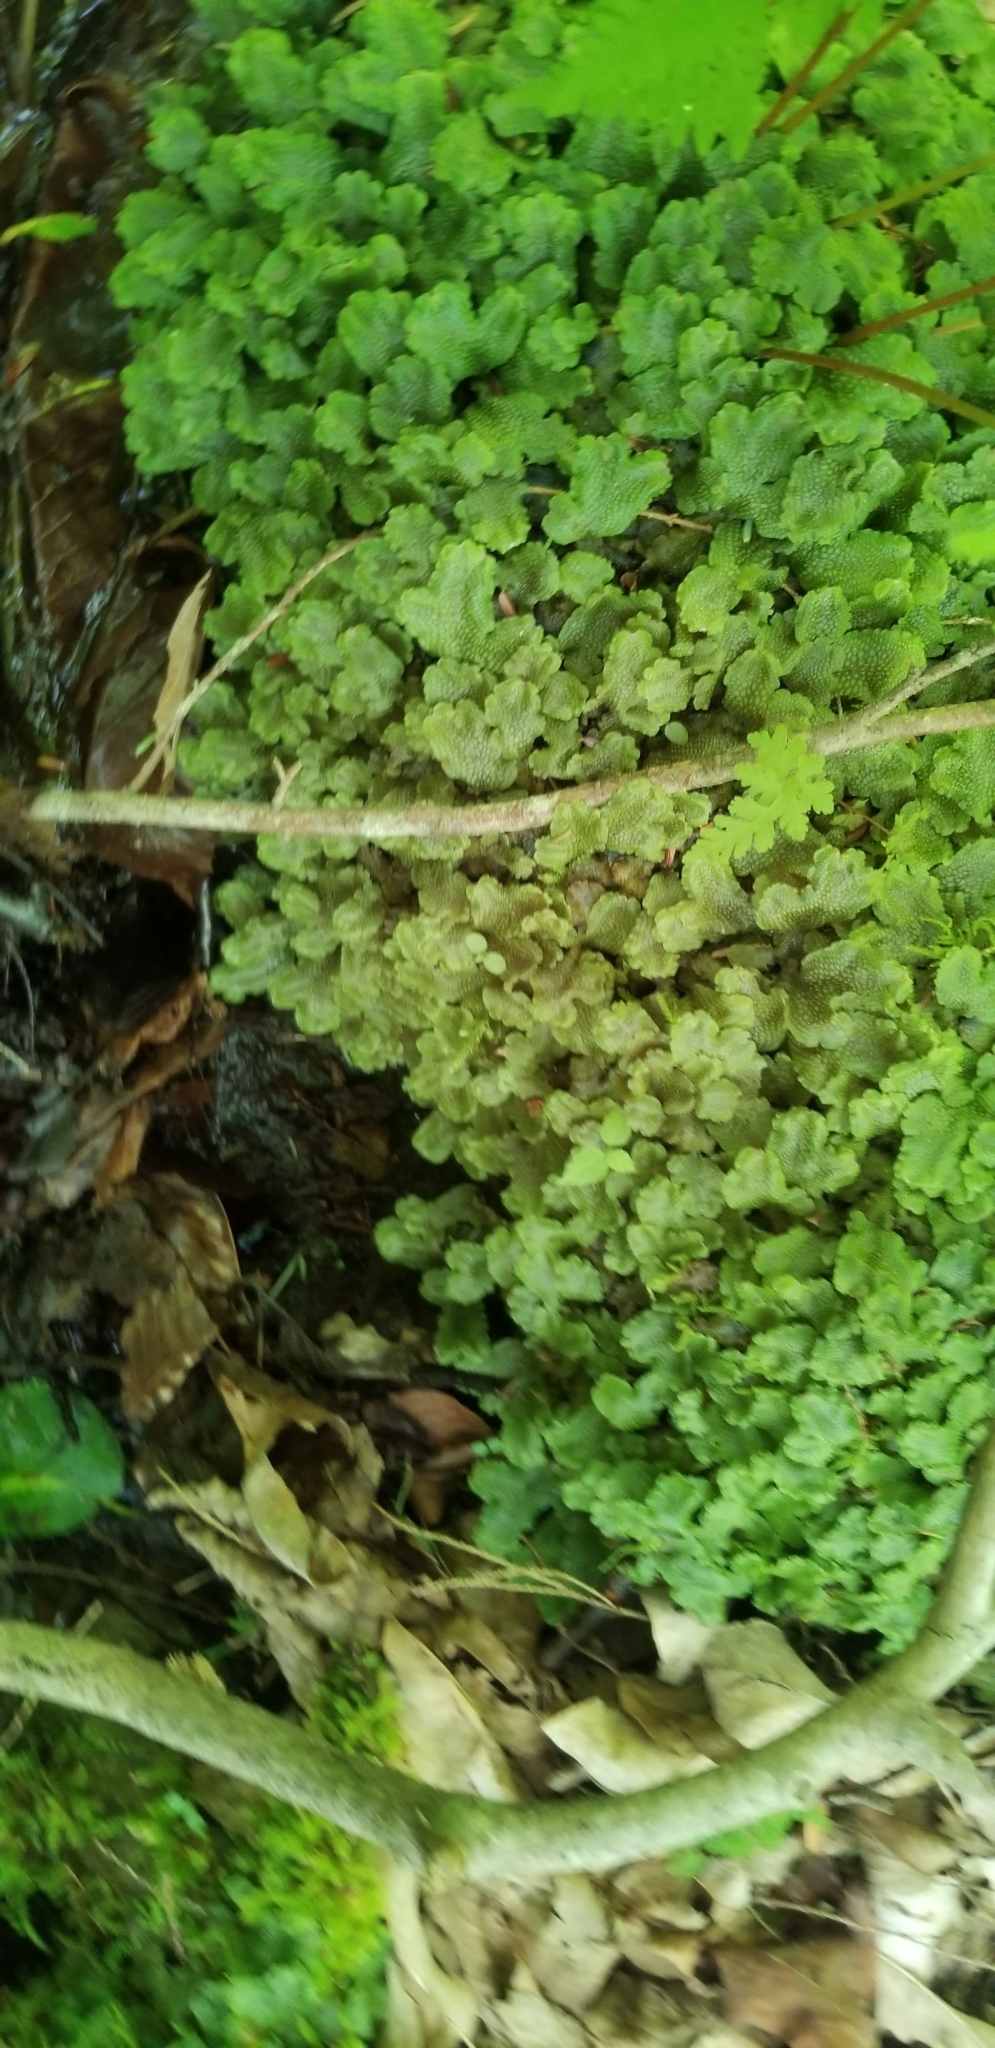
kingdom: Plantae
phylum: Marchantiophyta
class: Marchantiopsida
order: Marchantiales
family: Conocephalaceae
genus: Conocephalum
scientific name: Conocephalum salebrosum
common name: Cat-tongue liverwort
